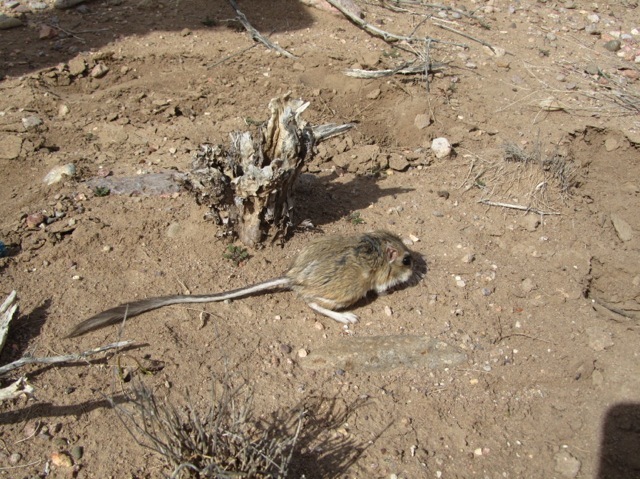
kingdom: Animalia
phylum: Chordata
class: Mammalia
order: Rodentia
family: Heteromyidae
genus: Dipodomys
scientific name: Dipodomys merriami
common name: Merriam's kangaroo rat
